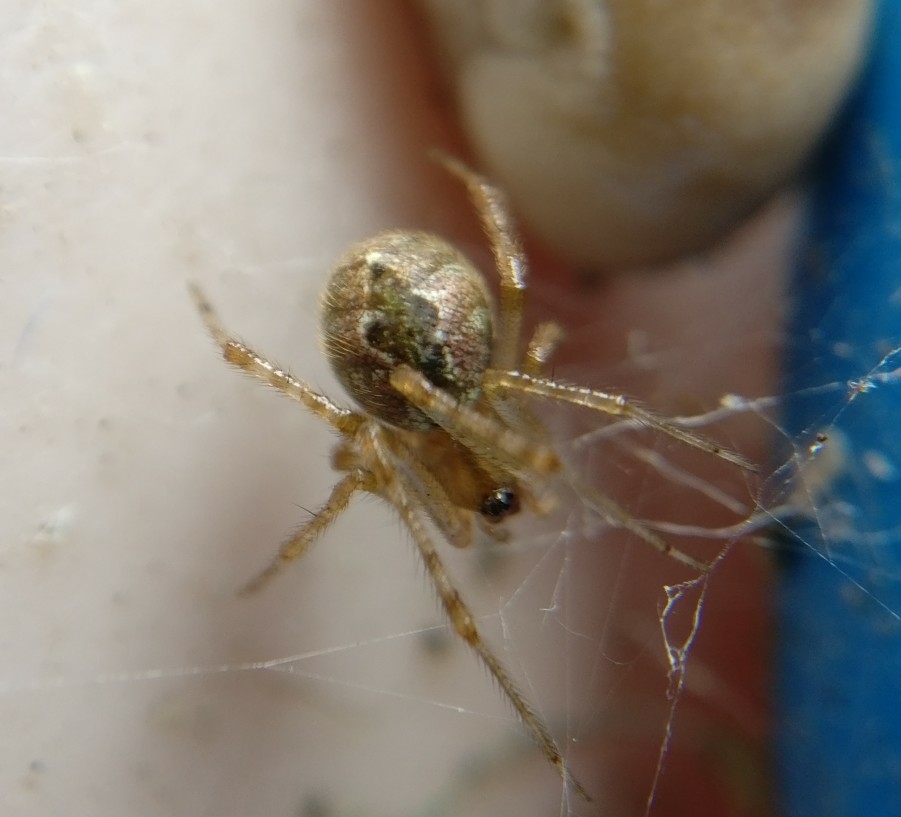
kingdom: Animalia
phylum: Arthropoda
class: Arachnida
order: Araneae
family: Theridiidae
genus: Cryptachaea
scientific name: Cryptachaea veruculata
